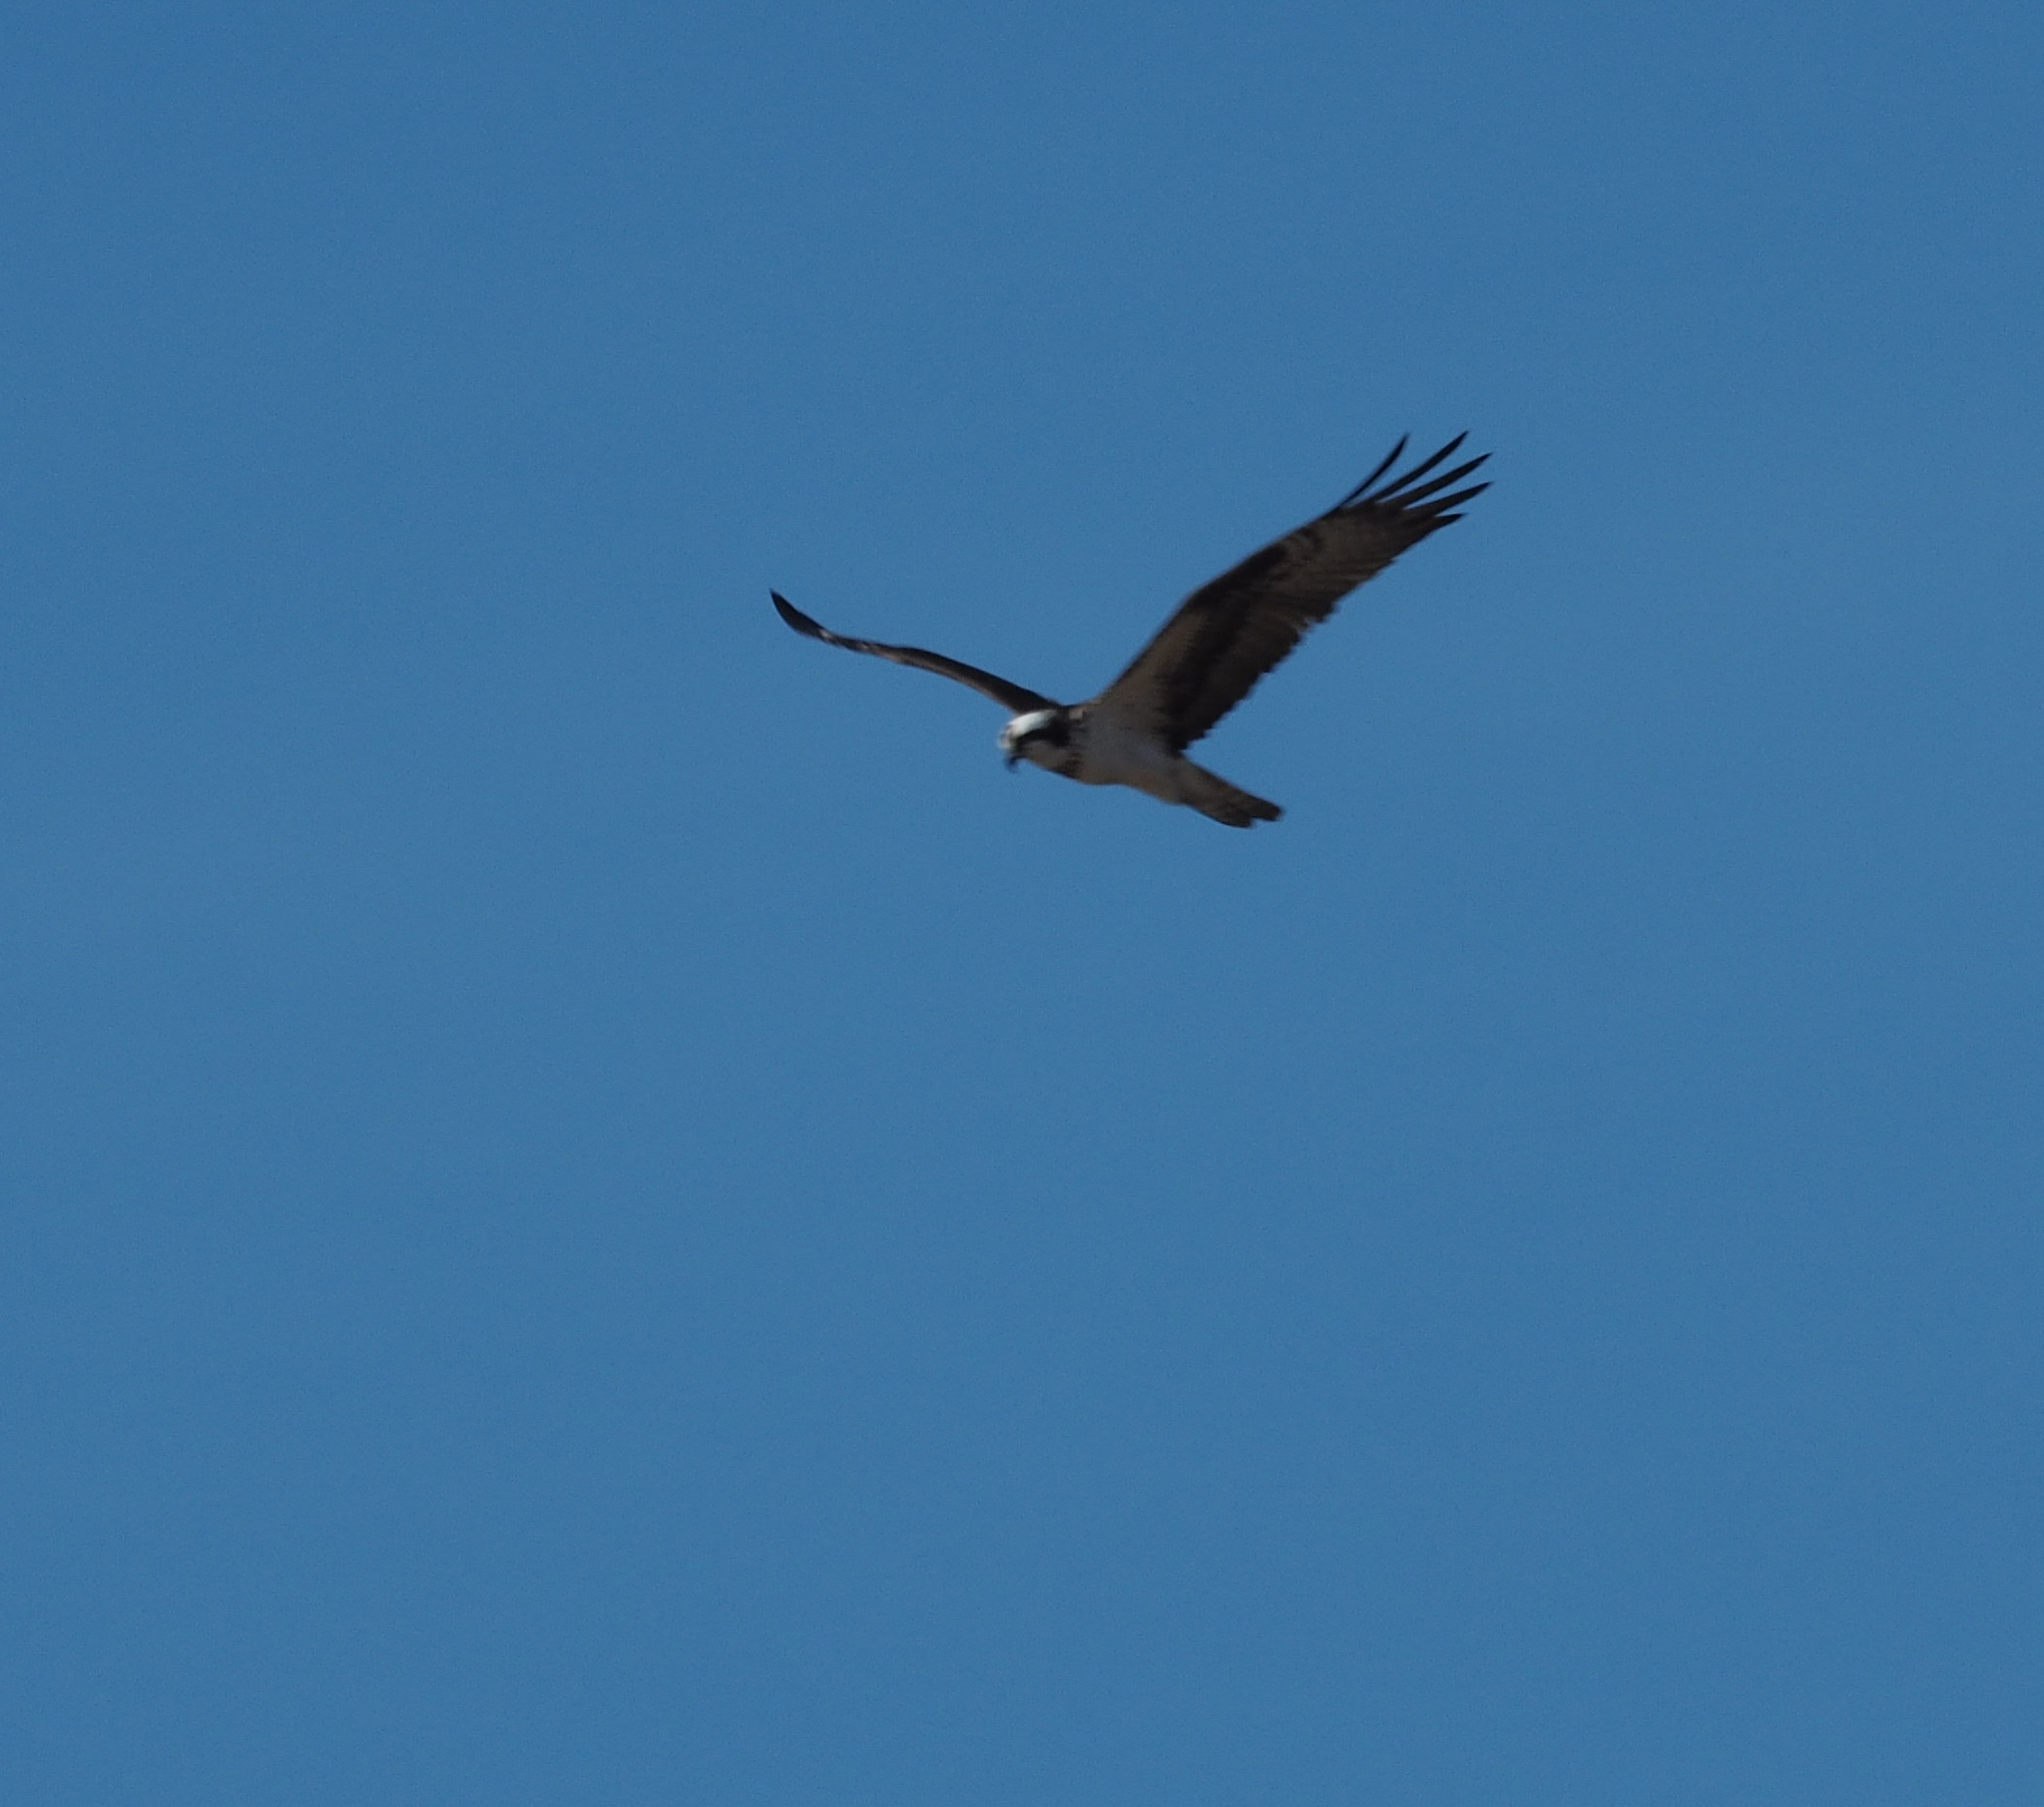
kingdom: Animalia
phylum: Chordata
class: Aves
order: Accipitriformes
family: Pandionidae
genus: Pandion
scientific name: Pandion haliaetus
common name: Osprey
